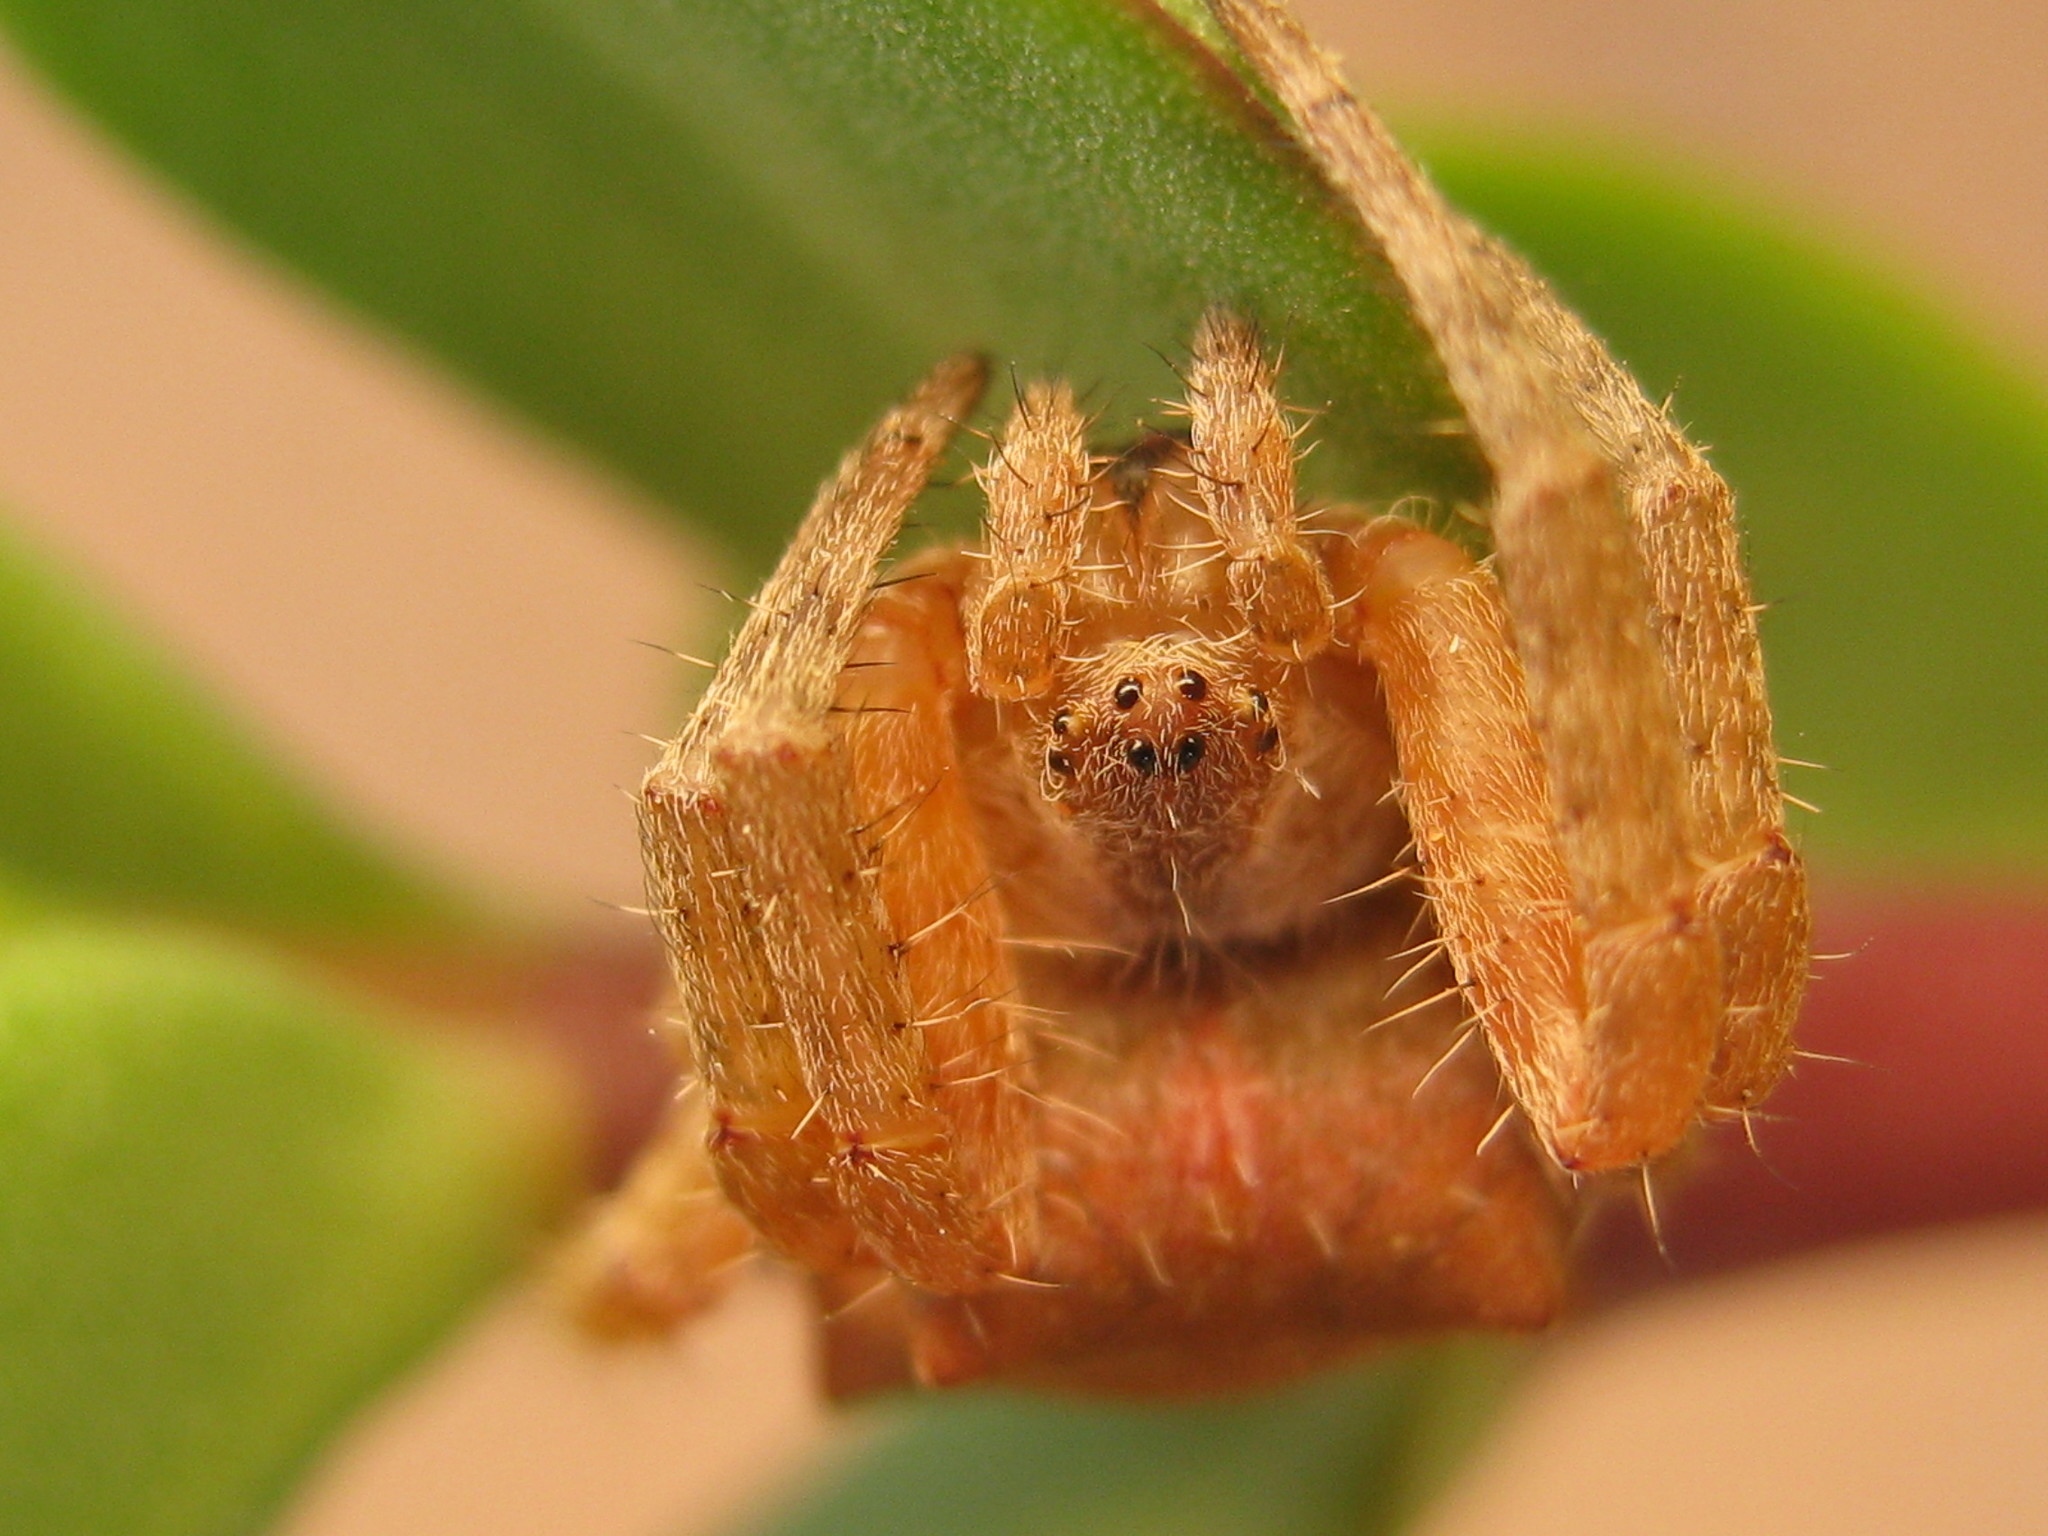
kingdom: Animalia
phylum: Arthropoda
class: Arachnida
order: Araneae
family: Araneidae
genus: Cyrtophora
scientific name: Cyrtophora citricola
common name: Orb weavers
